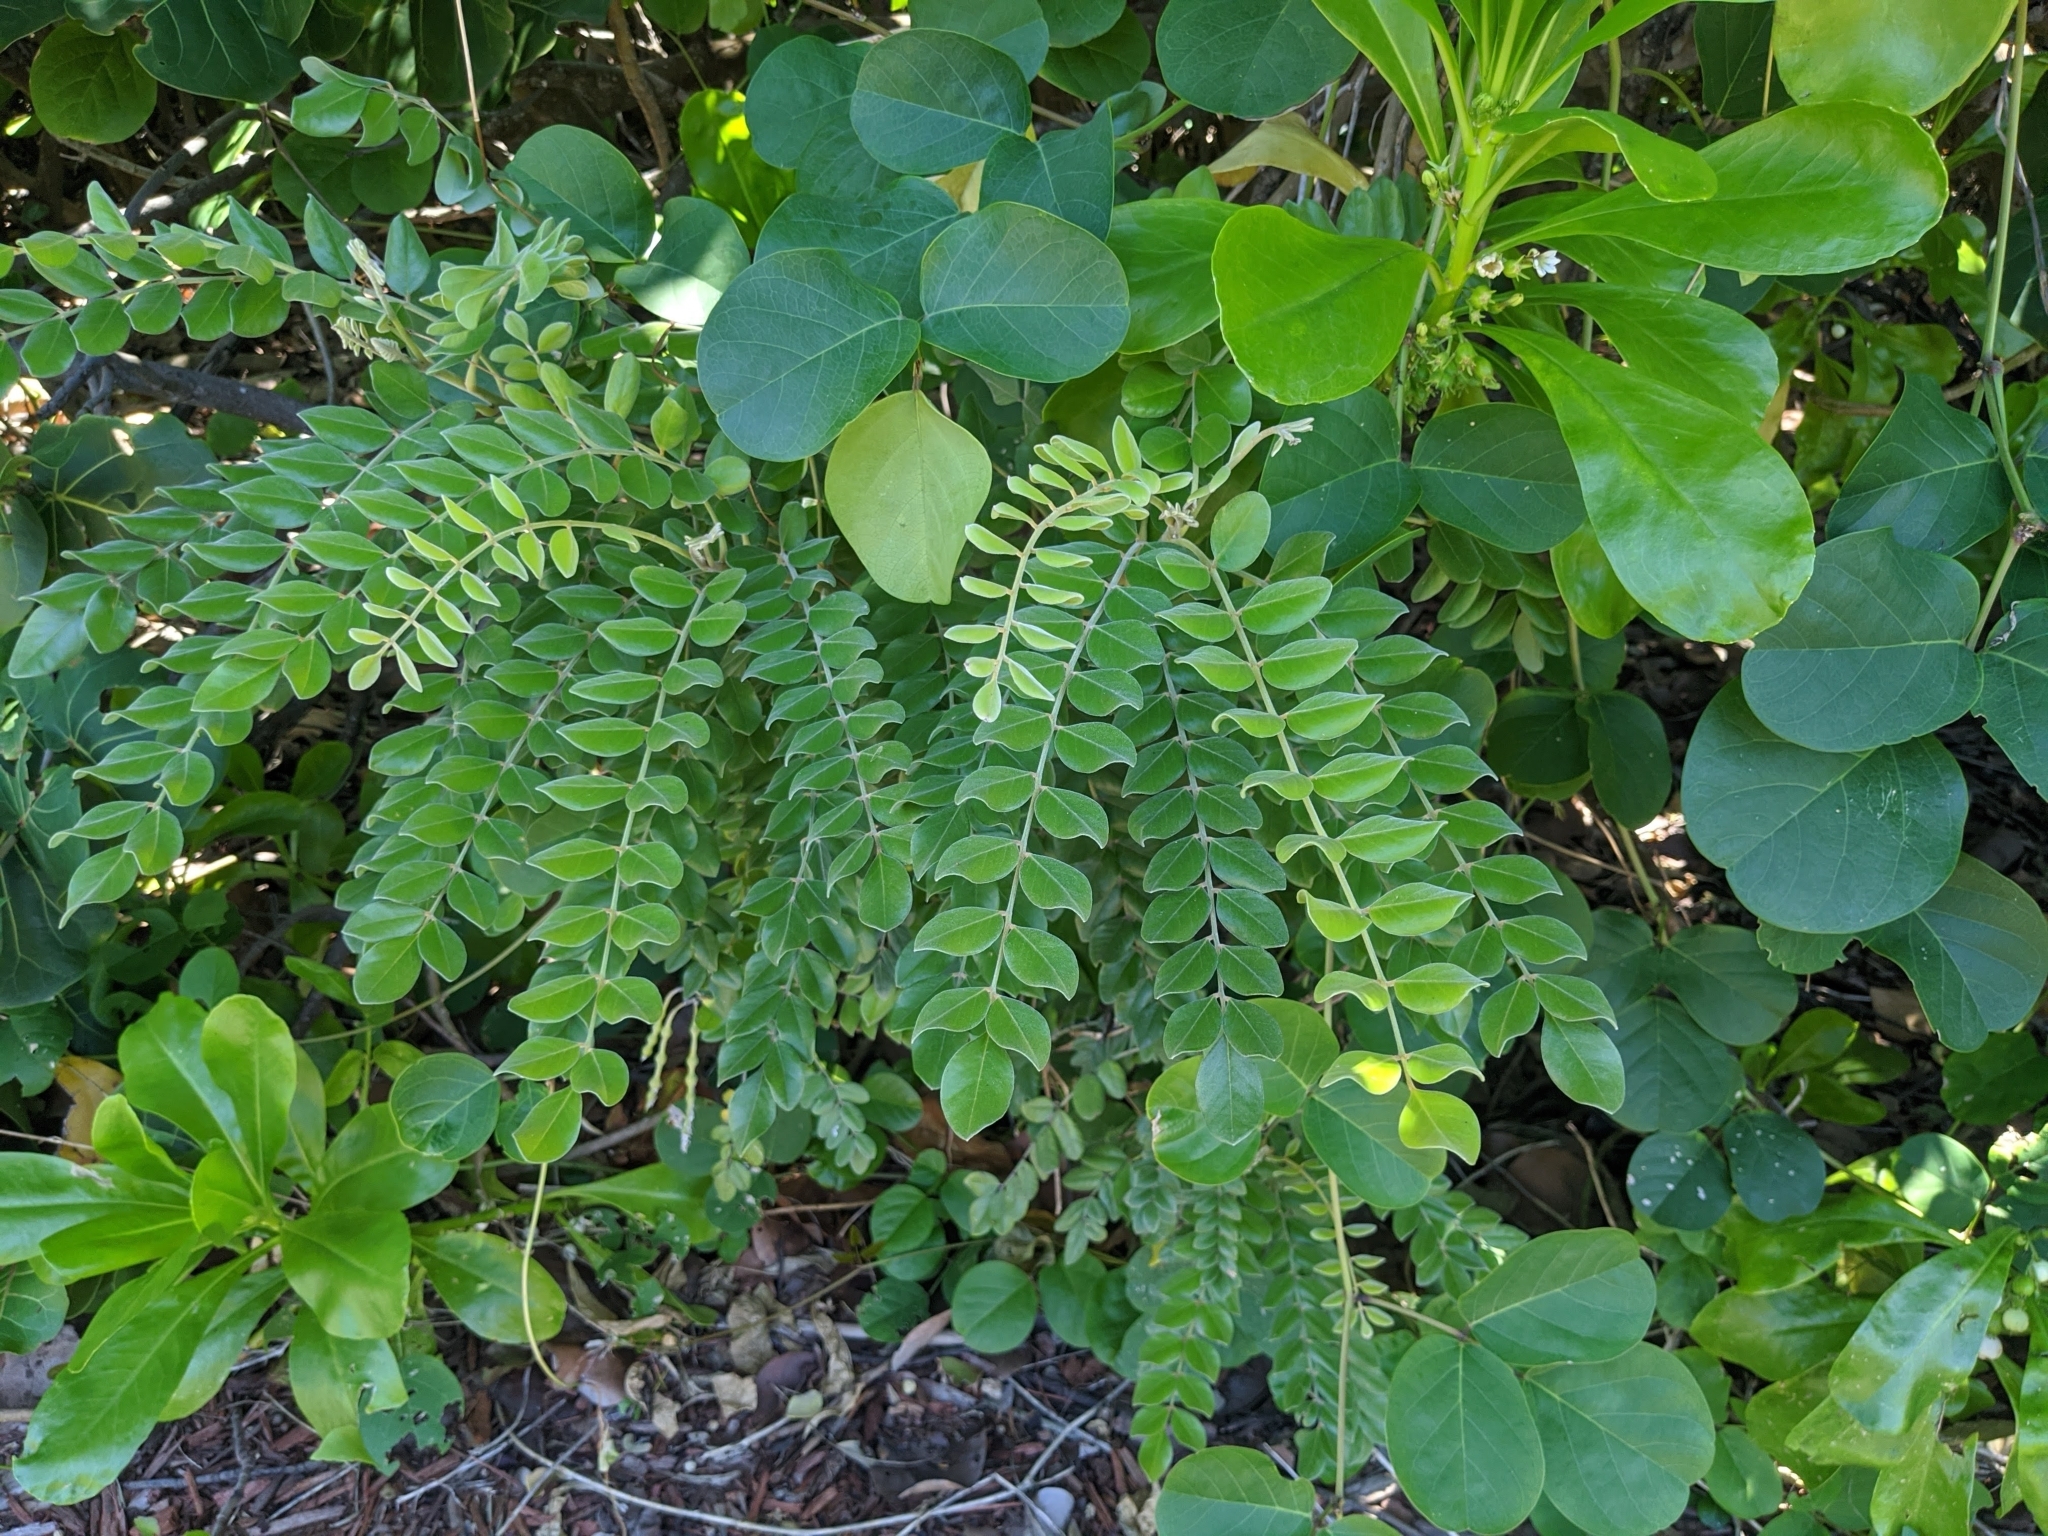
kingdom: Plantae
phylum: Tracheophyta
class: Magnoliopsida
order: Fabales
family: Fabaceae
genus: Sophora
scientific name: Sophora tomentosa
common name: Yellow necklacepod
